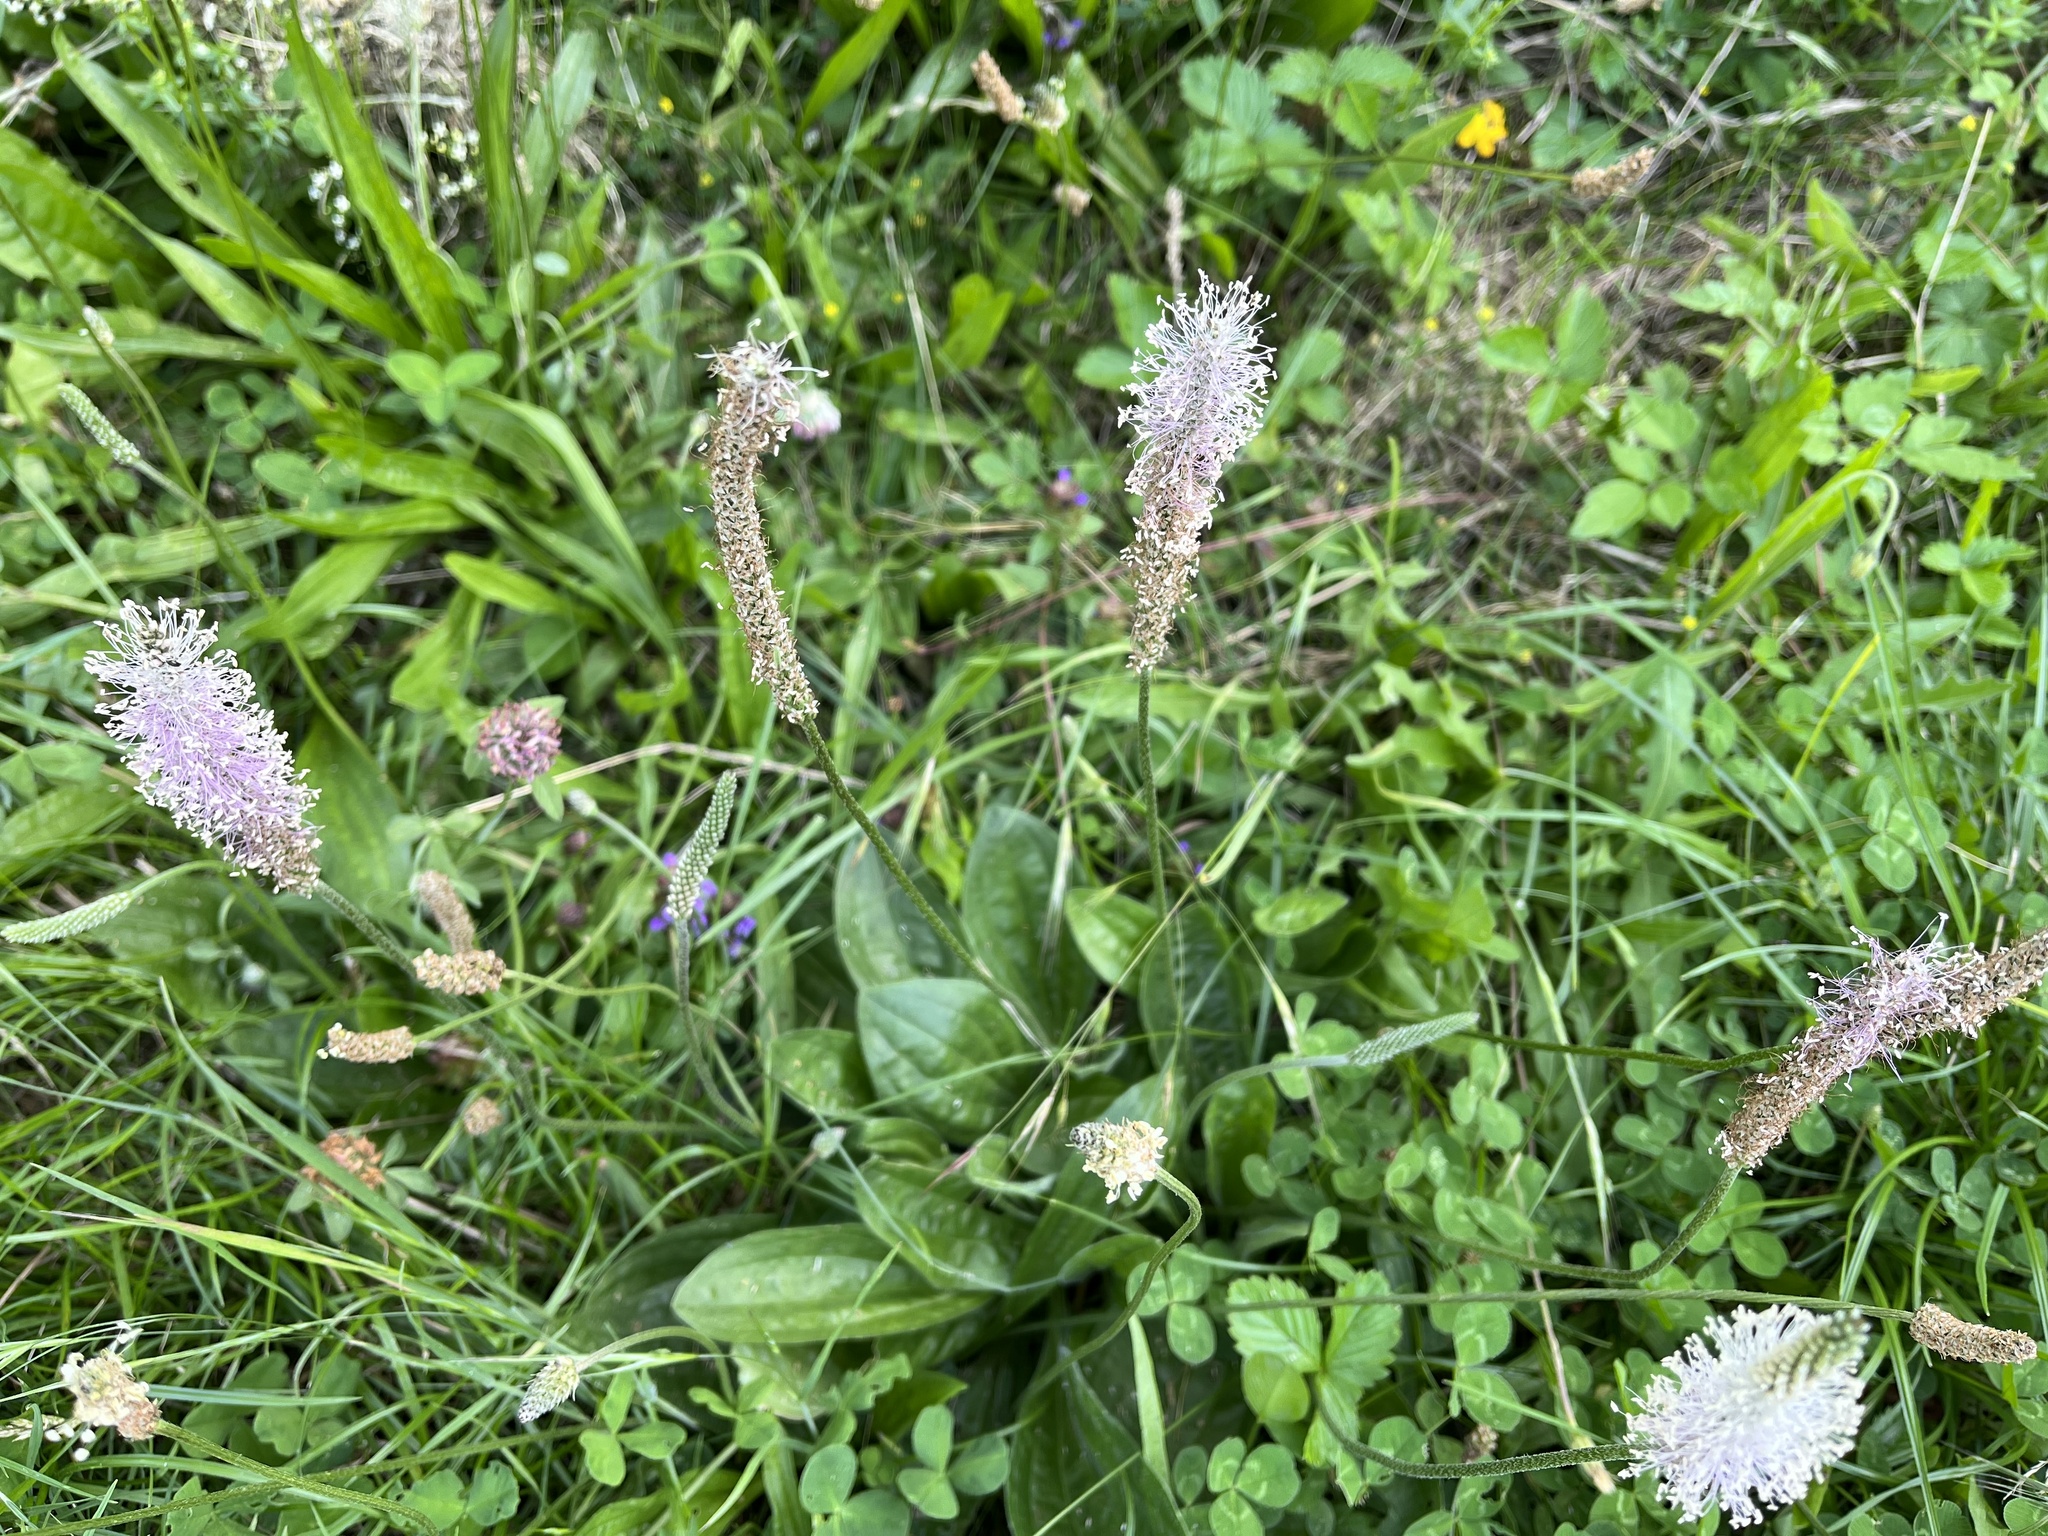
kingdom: Plantae
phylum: Tracheophyta
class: Magnoliopsida
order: Lamiales
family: Plantaginaceae
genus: Plantago
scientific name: Plantago media
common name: Hoary plantain
